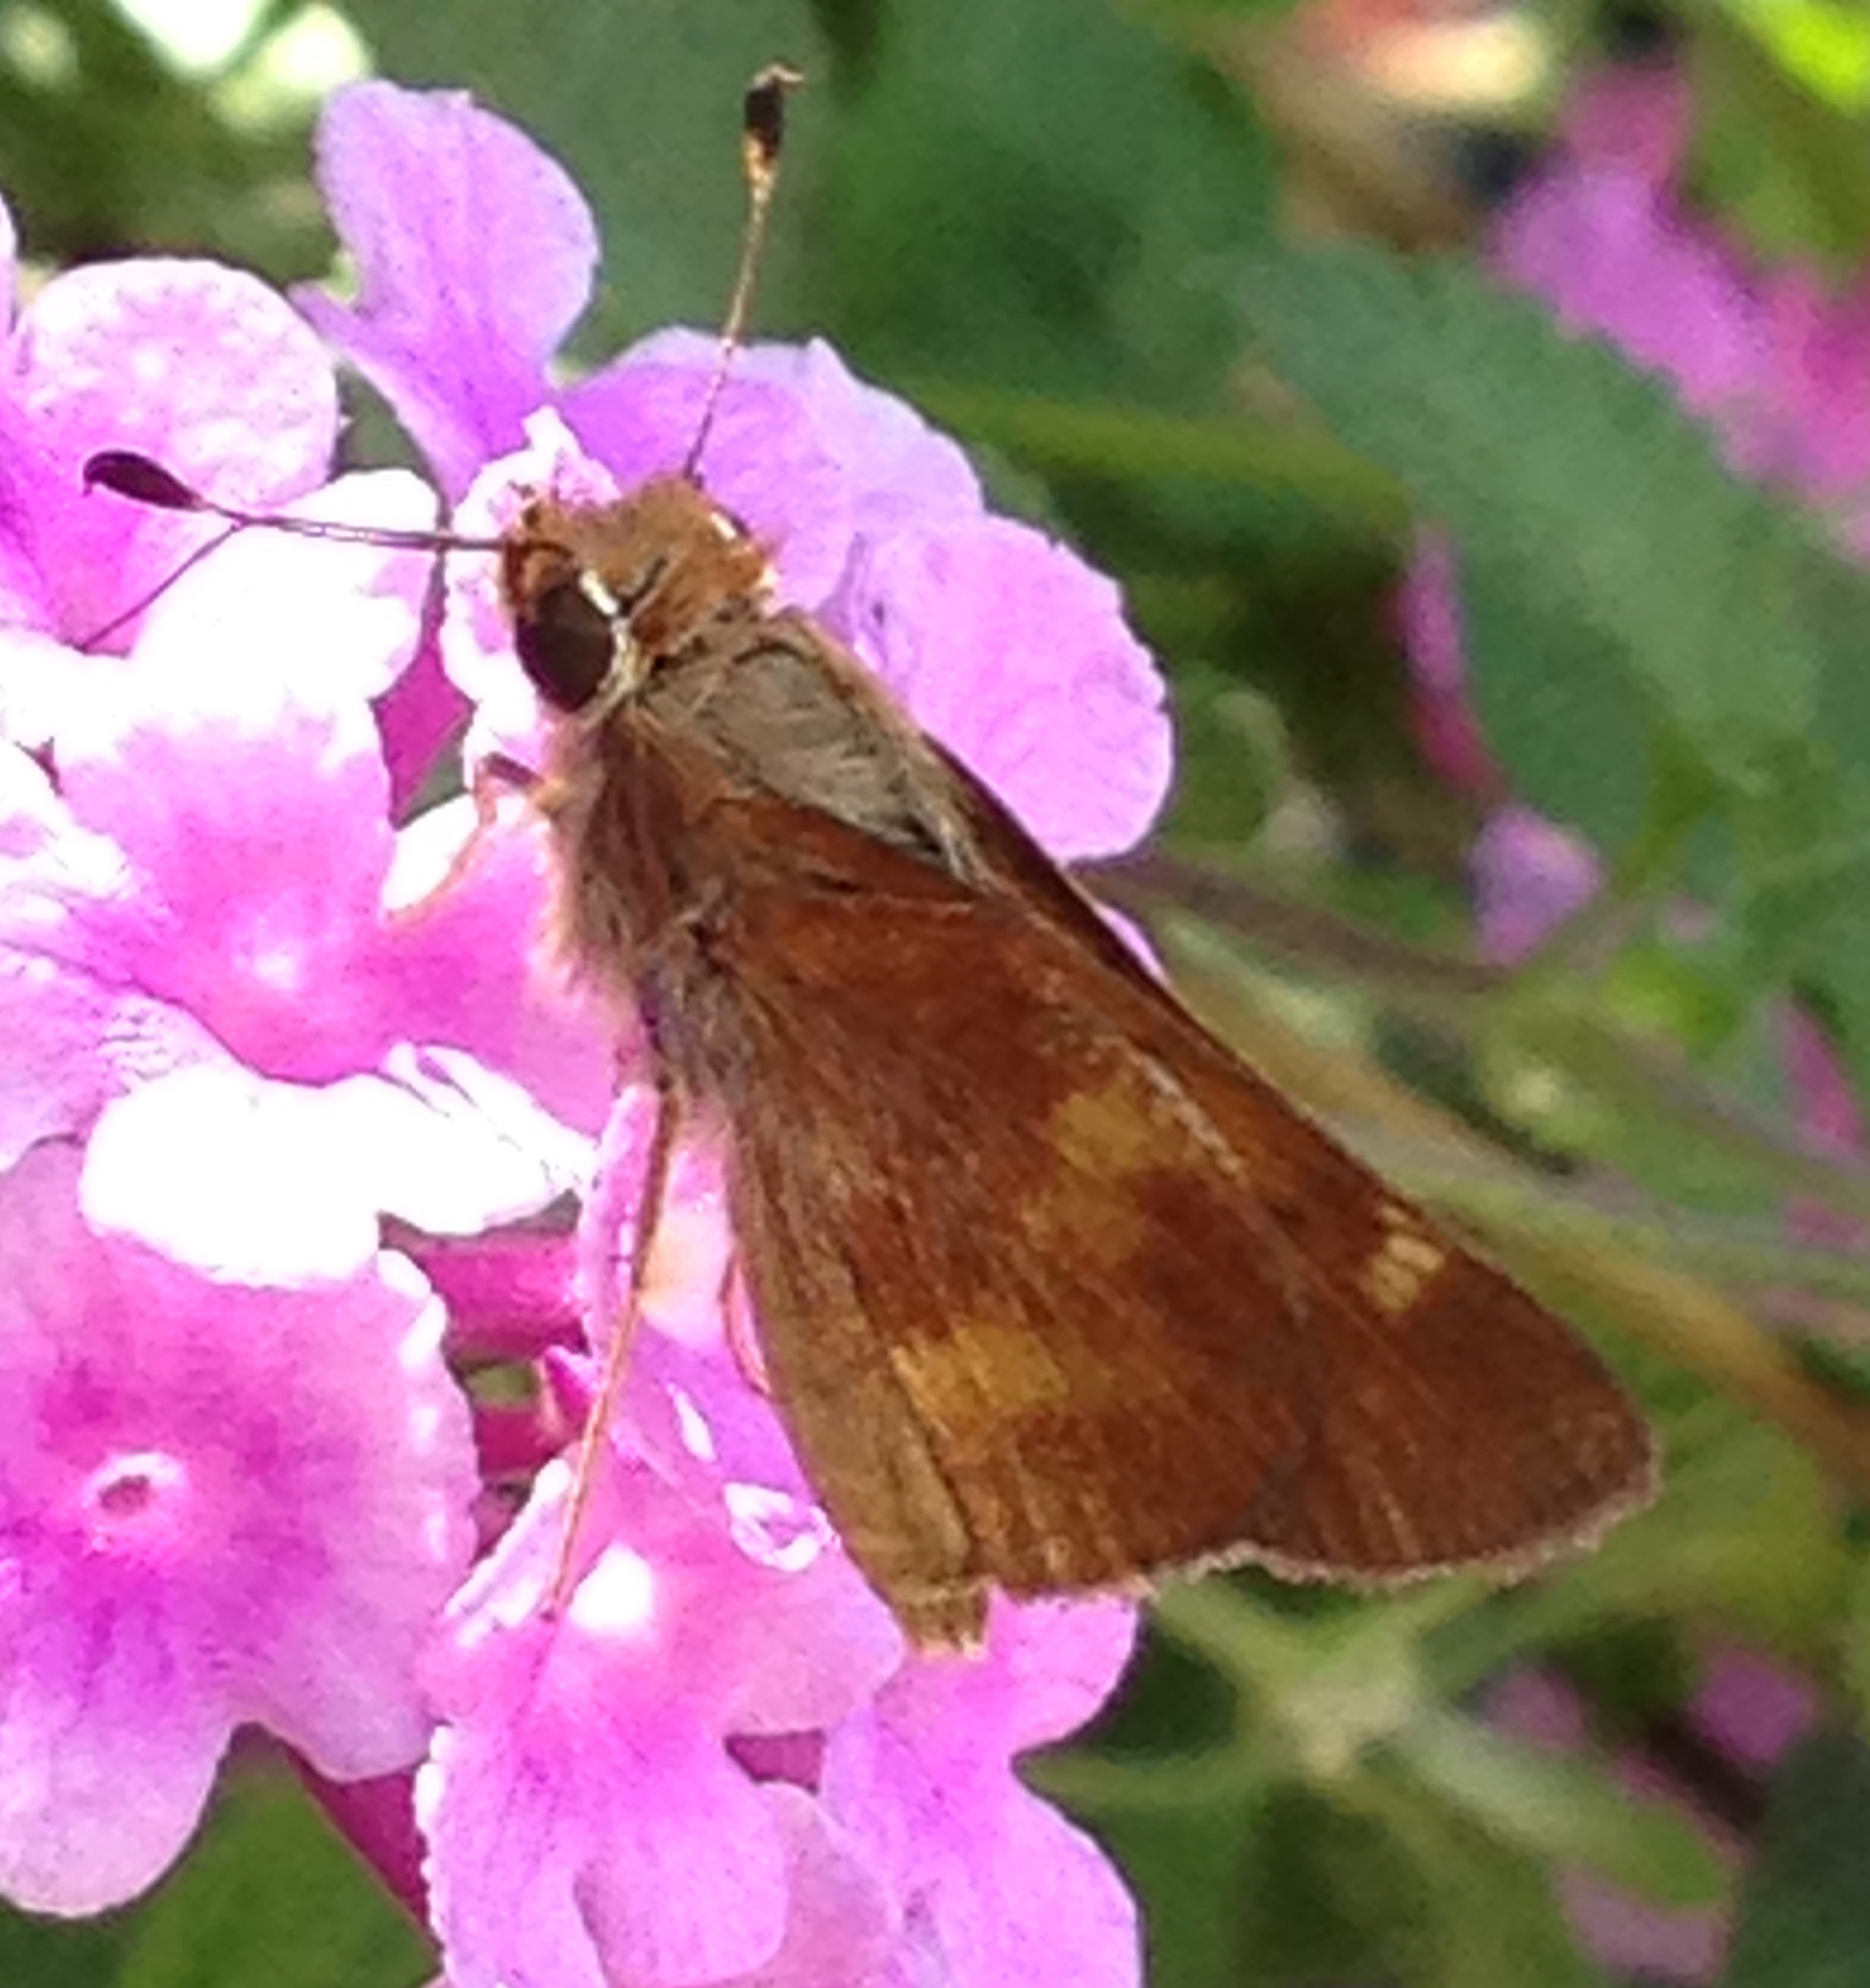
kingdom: Animalia
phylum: Arthropoda
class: Insecta
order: Lepidoptera
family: Hesperiidae
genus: Lon
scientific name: Lon melane
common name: Umber skipper
